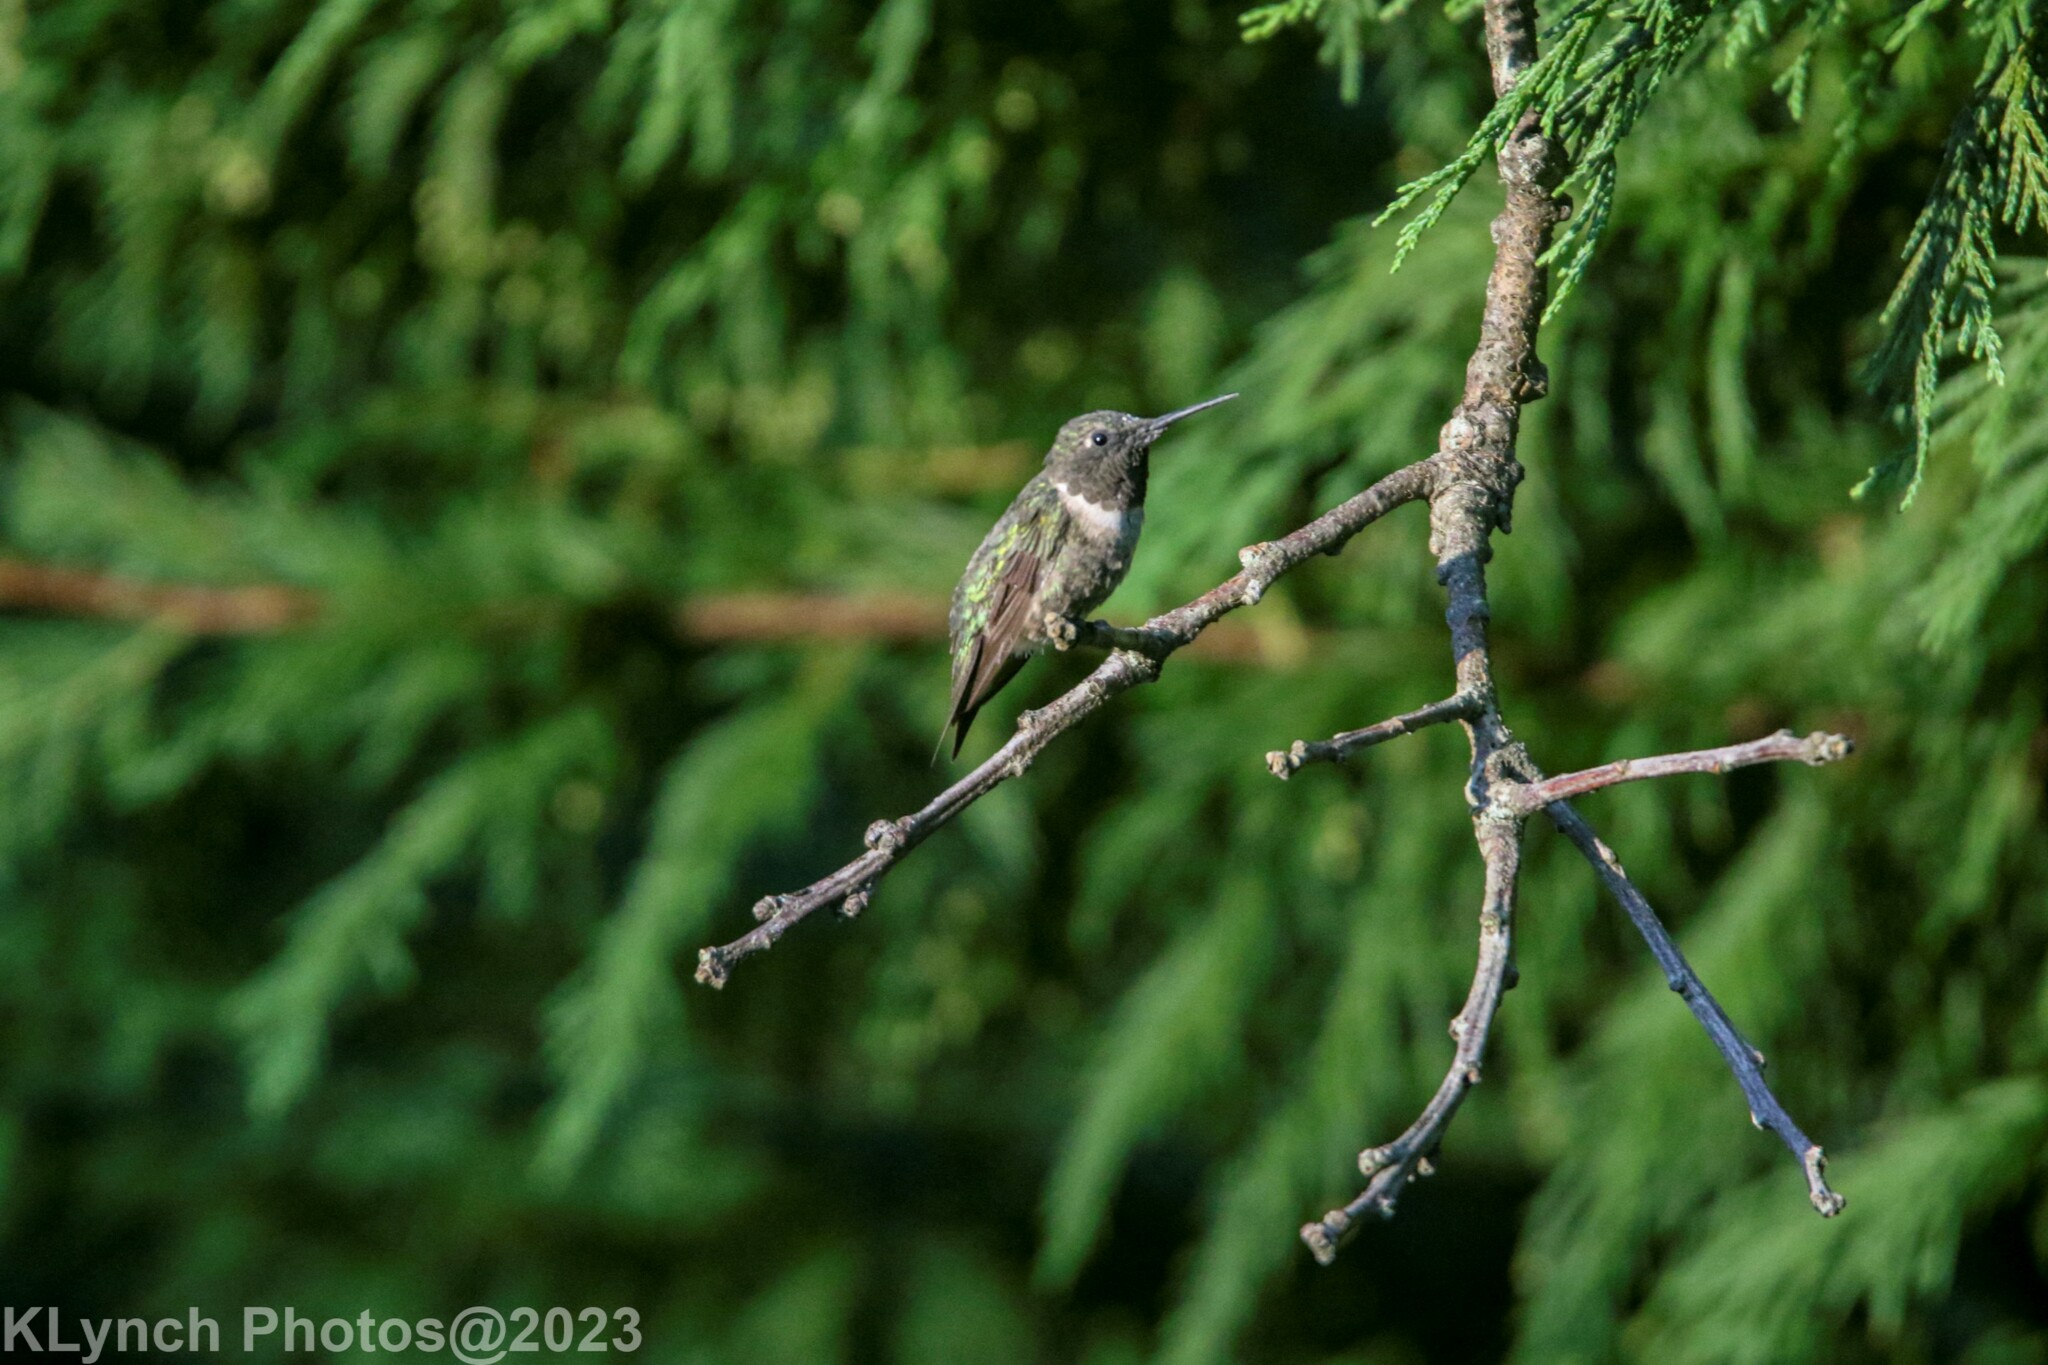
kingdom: Animalia
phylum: Chordata
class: Aves
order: Apodiformes
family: Trochilidae
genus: Archilochus
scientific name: Archilochus colubris
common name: Ruby-throated hummingbird
